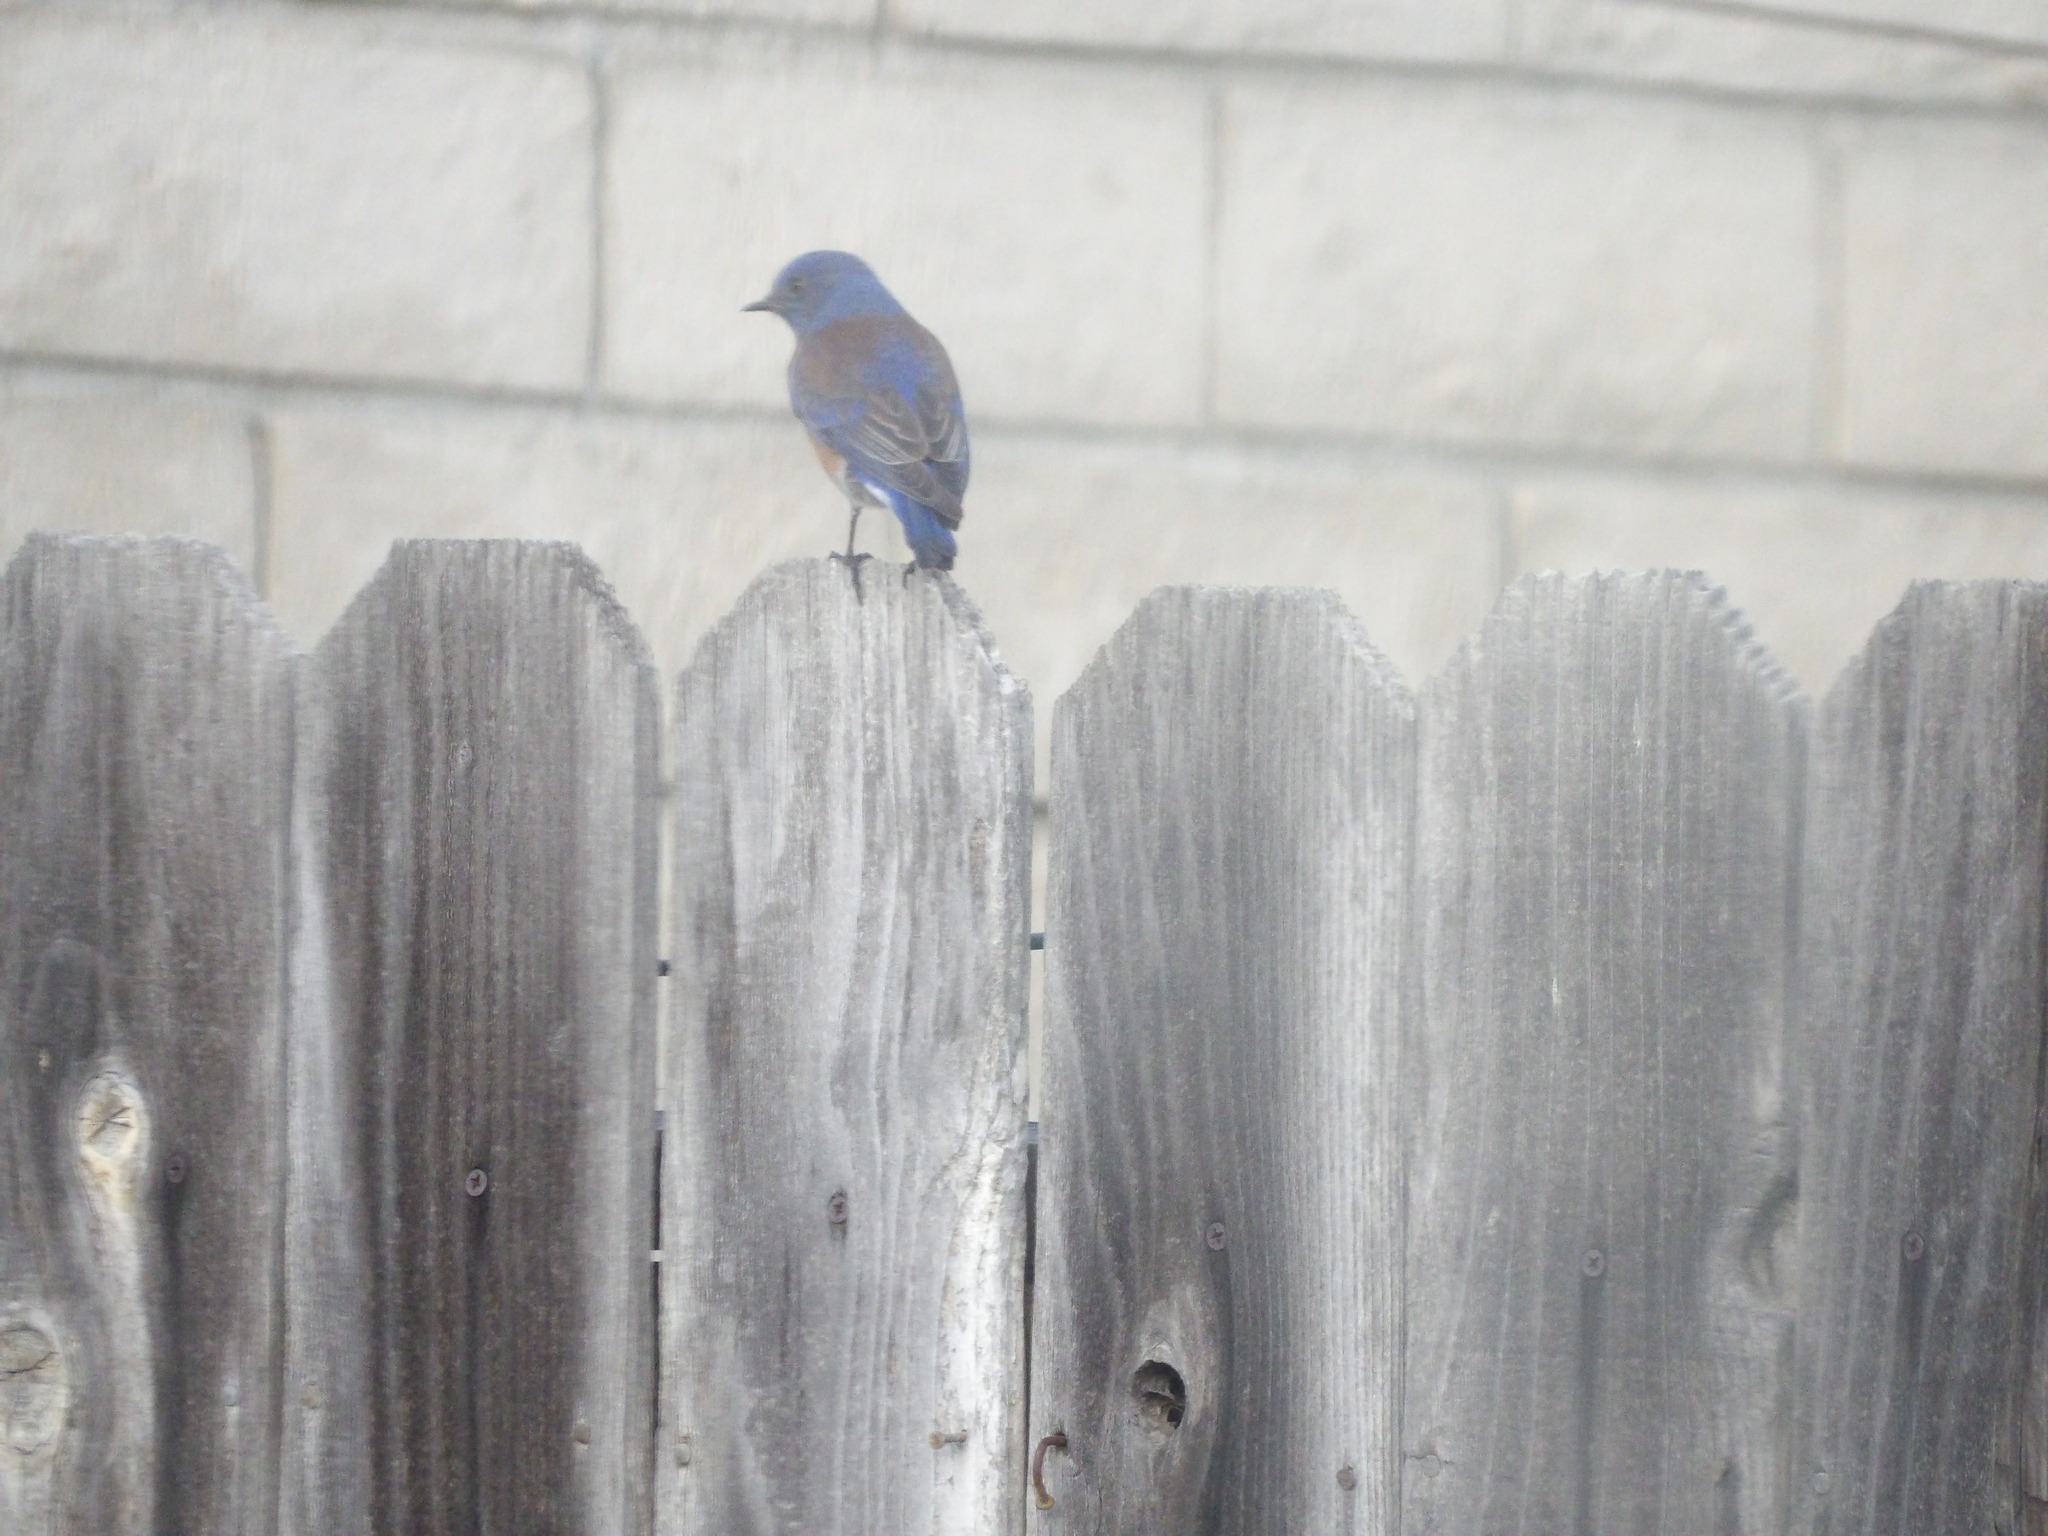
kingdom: Animalia
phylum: Chordata
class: Aves
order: Passeriformes
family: Turdidae
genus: Sialia
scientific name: Sialia mexicana
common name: Western bluebird
